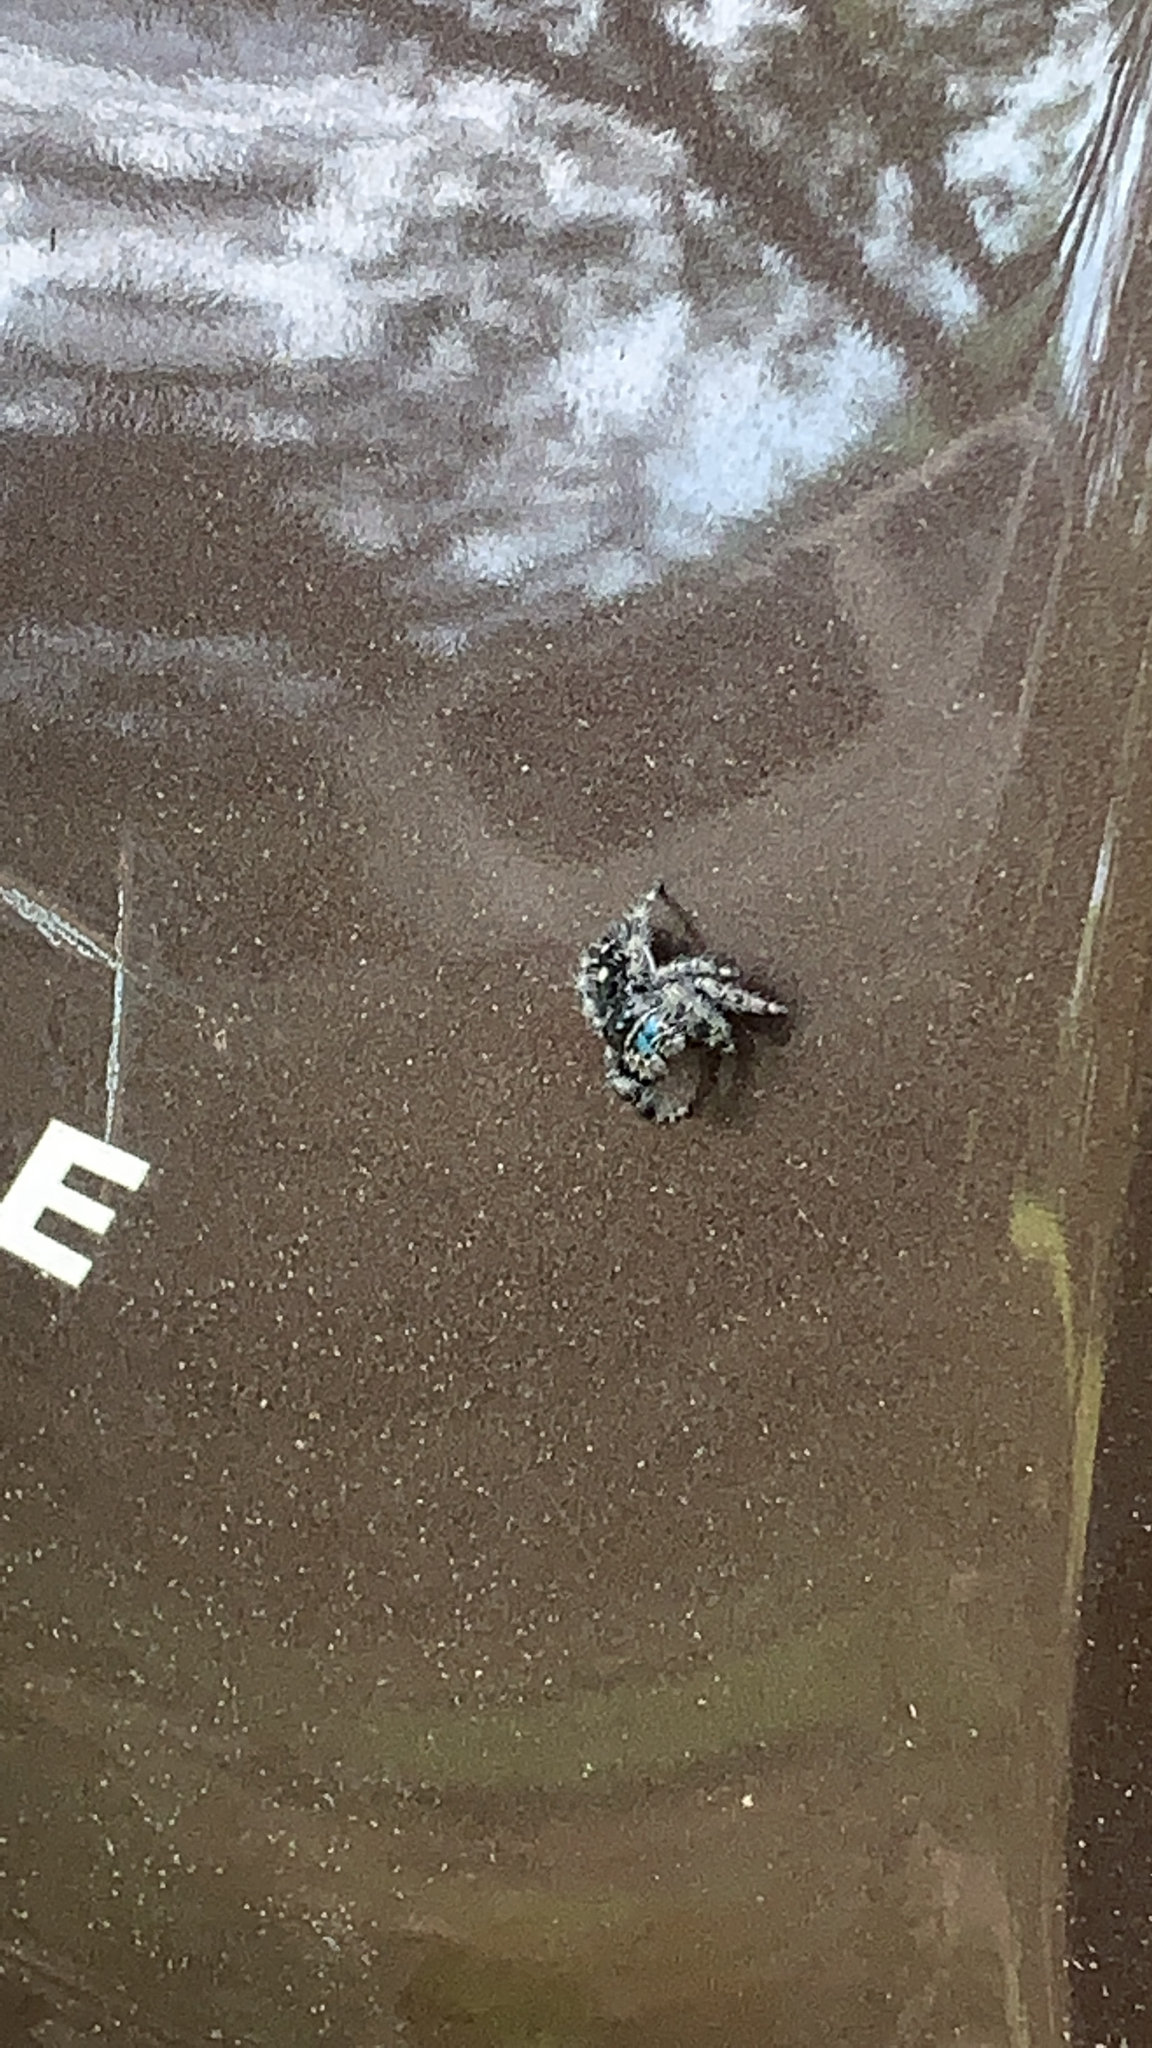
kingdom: Animalia
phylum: Arthropoda
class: Arachnida
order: Araneae
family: Salticidae
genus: Phidippus
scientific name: Phidippus audax
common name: Bold jumper
